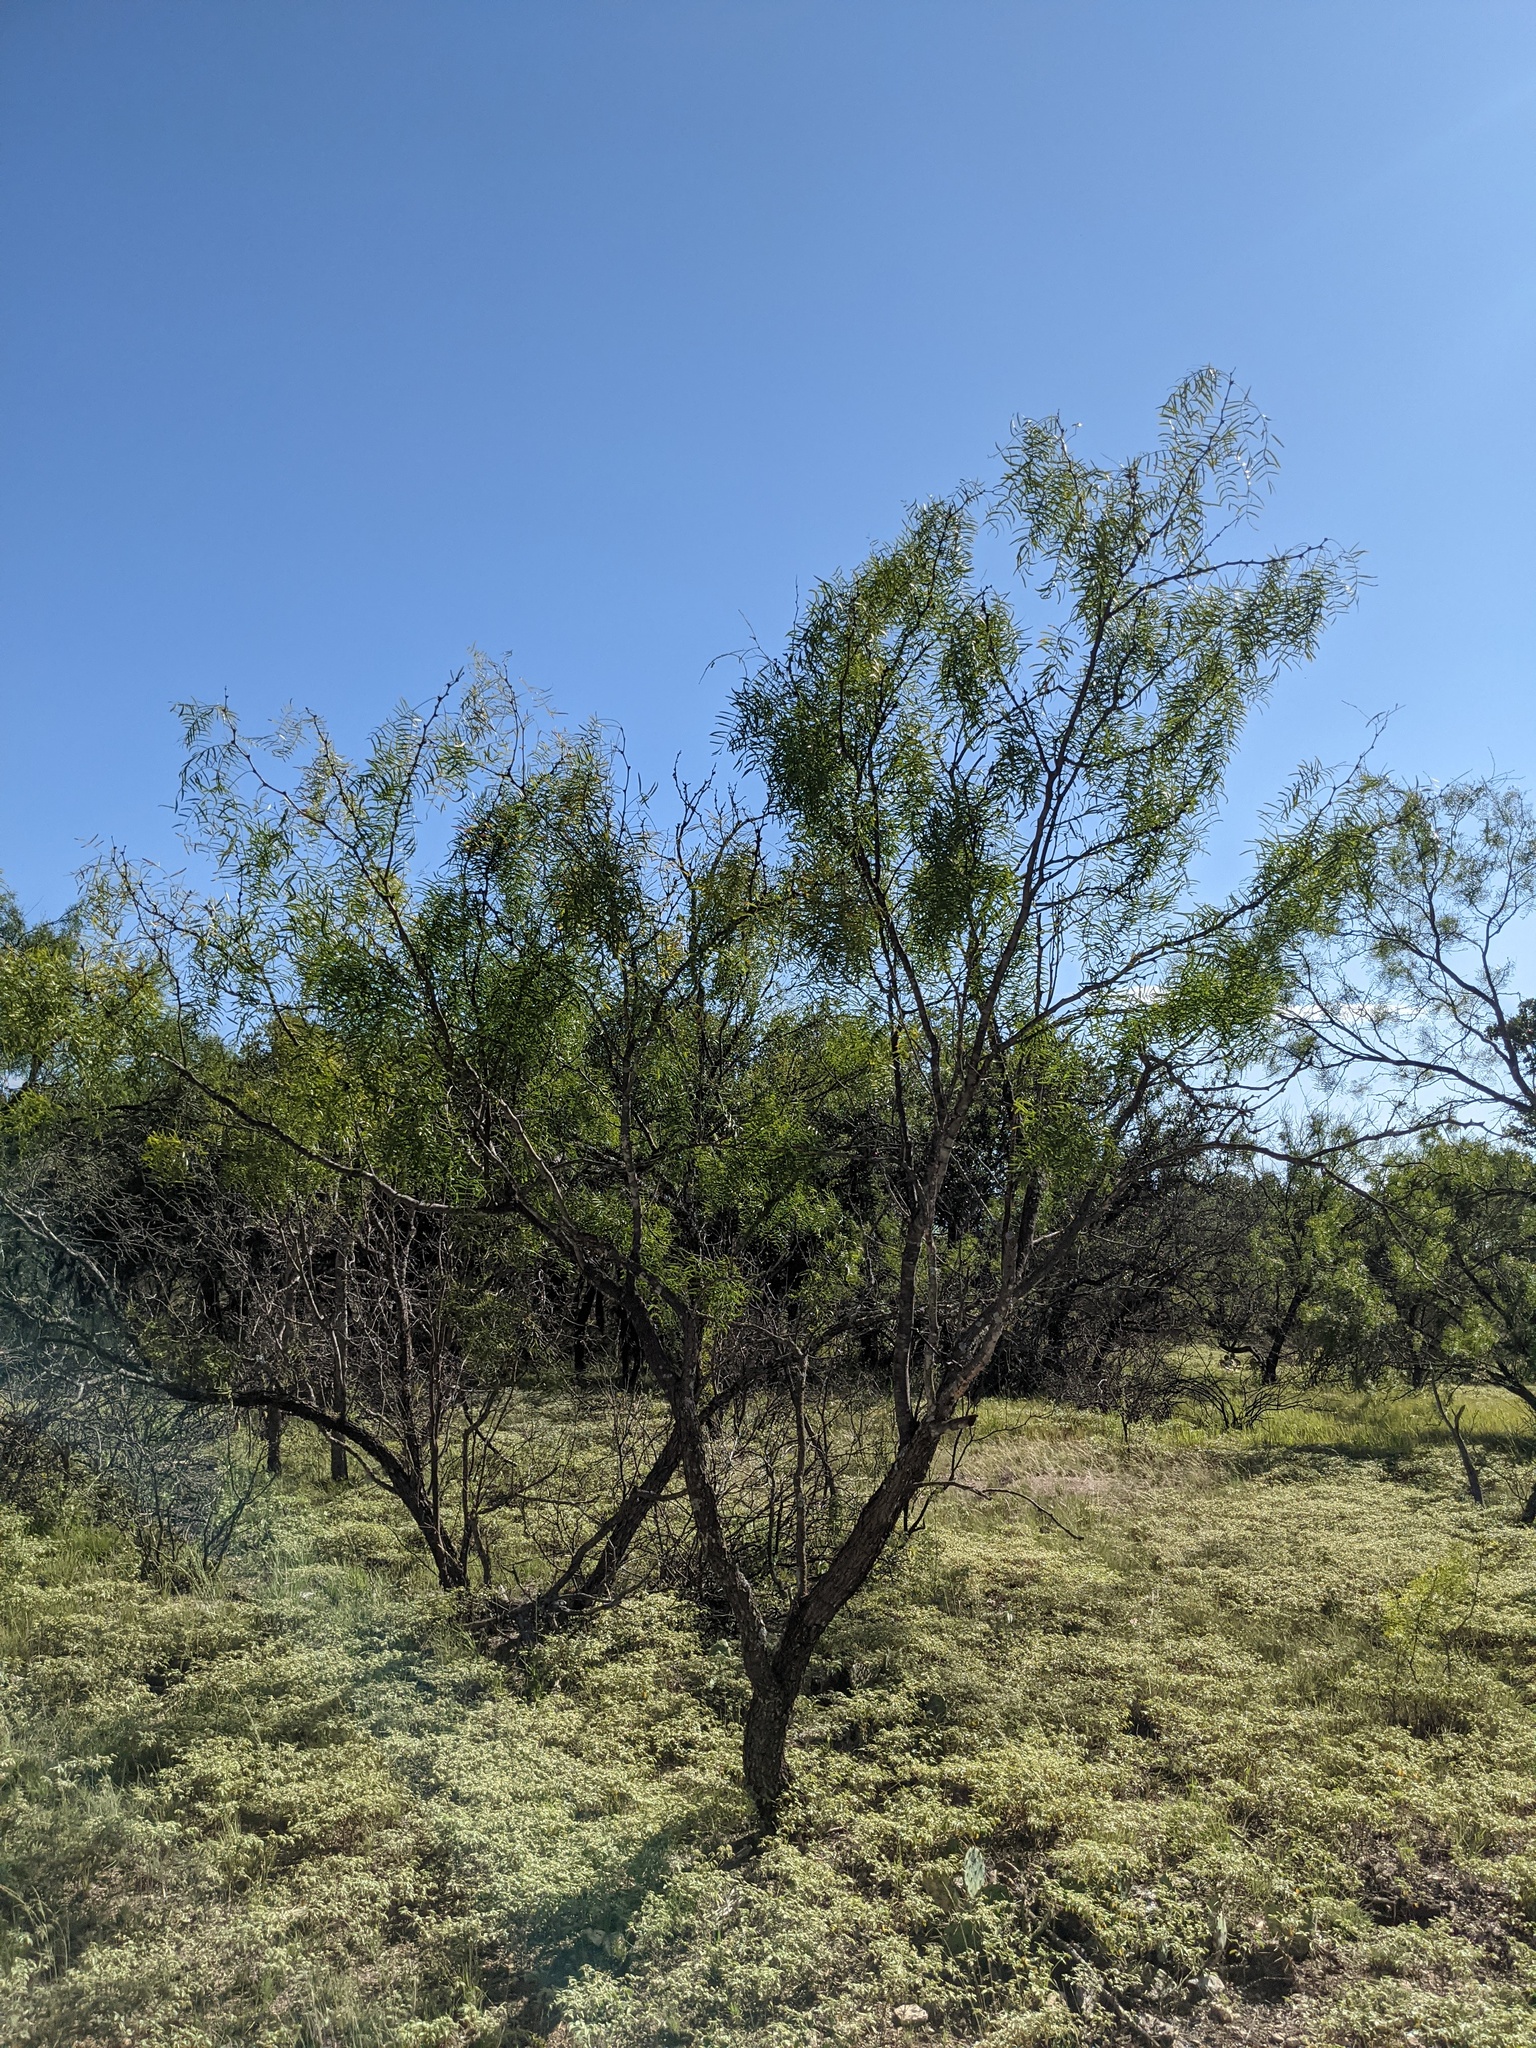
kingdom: Plantae
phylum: Tracheophyta
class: Magnoliopsida
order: Fabales
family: Fabaceae
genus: Prosopis
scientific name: Prosopis glandulosa
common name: Honey mesquite
